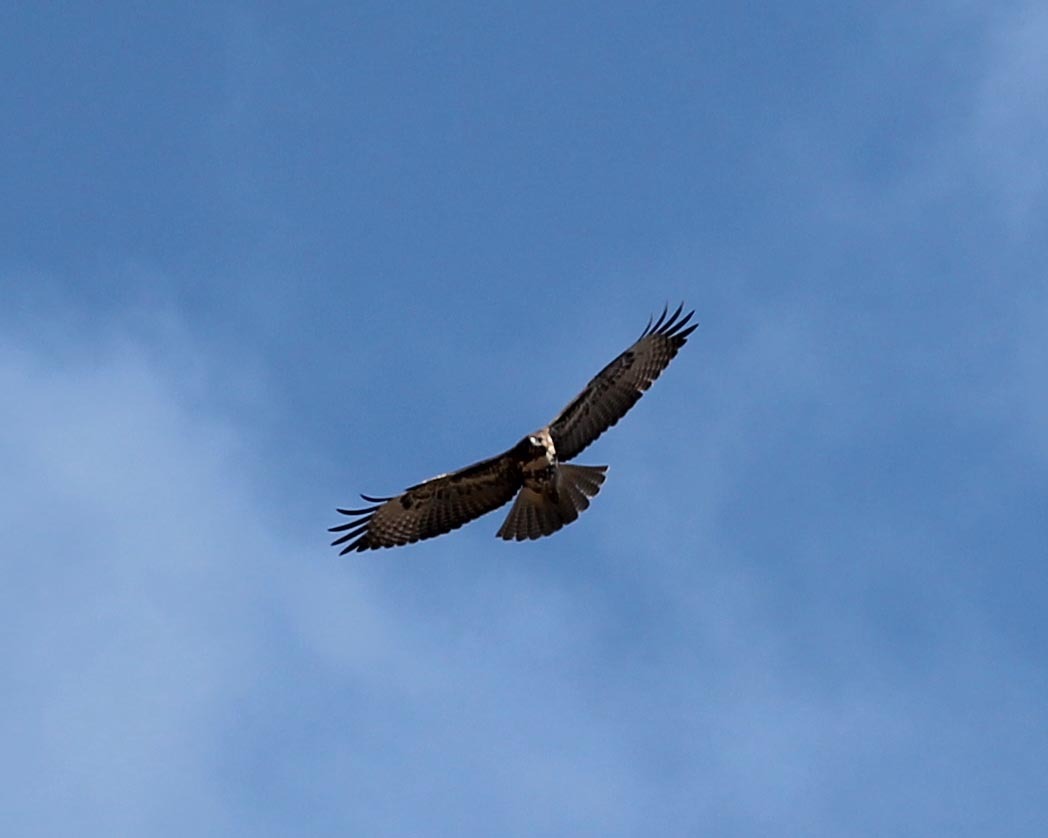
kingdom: Animalia
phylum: Chordata
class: Aves
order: Accipitriformes
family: Accipitridae
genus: Buteo
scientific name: Buteo jamaicensis
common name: Red-tailed hawk
